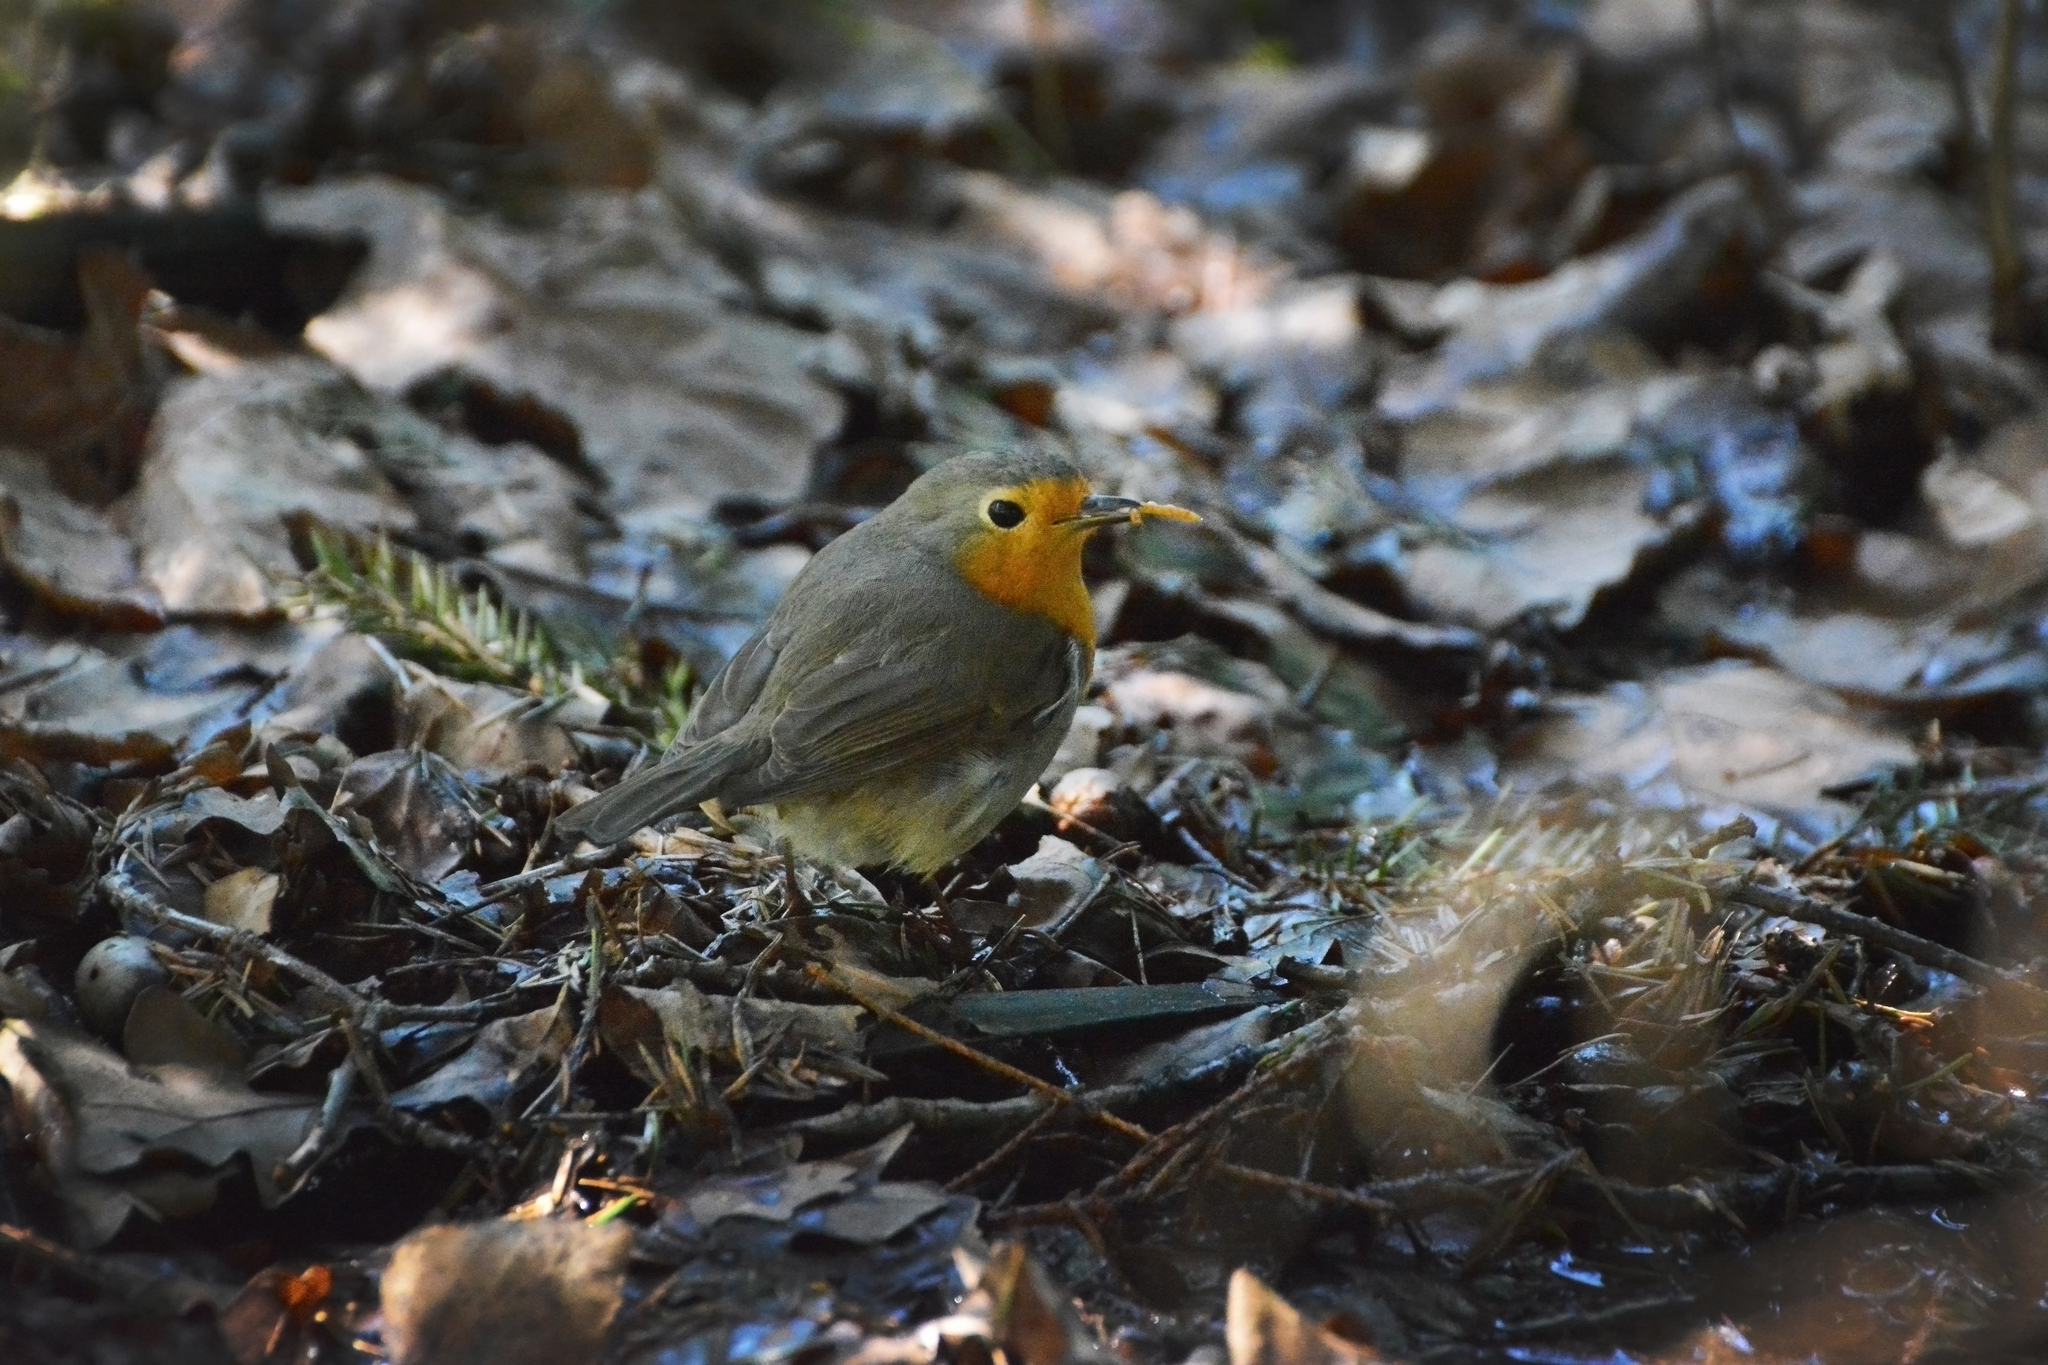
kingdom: Animalia
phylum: Chordata
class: Aves
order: Passeriformes
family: Muscicapidae
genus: Erithacus
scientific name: Erithacus rubecula
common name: European robin
